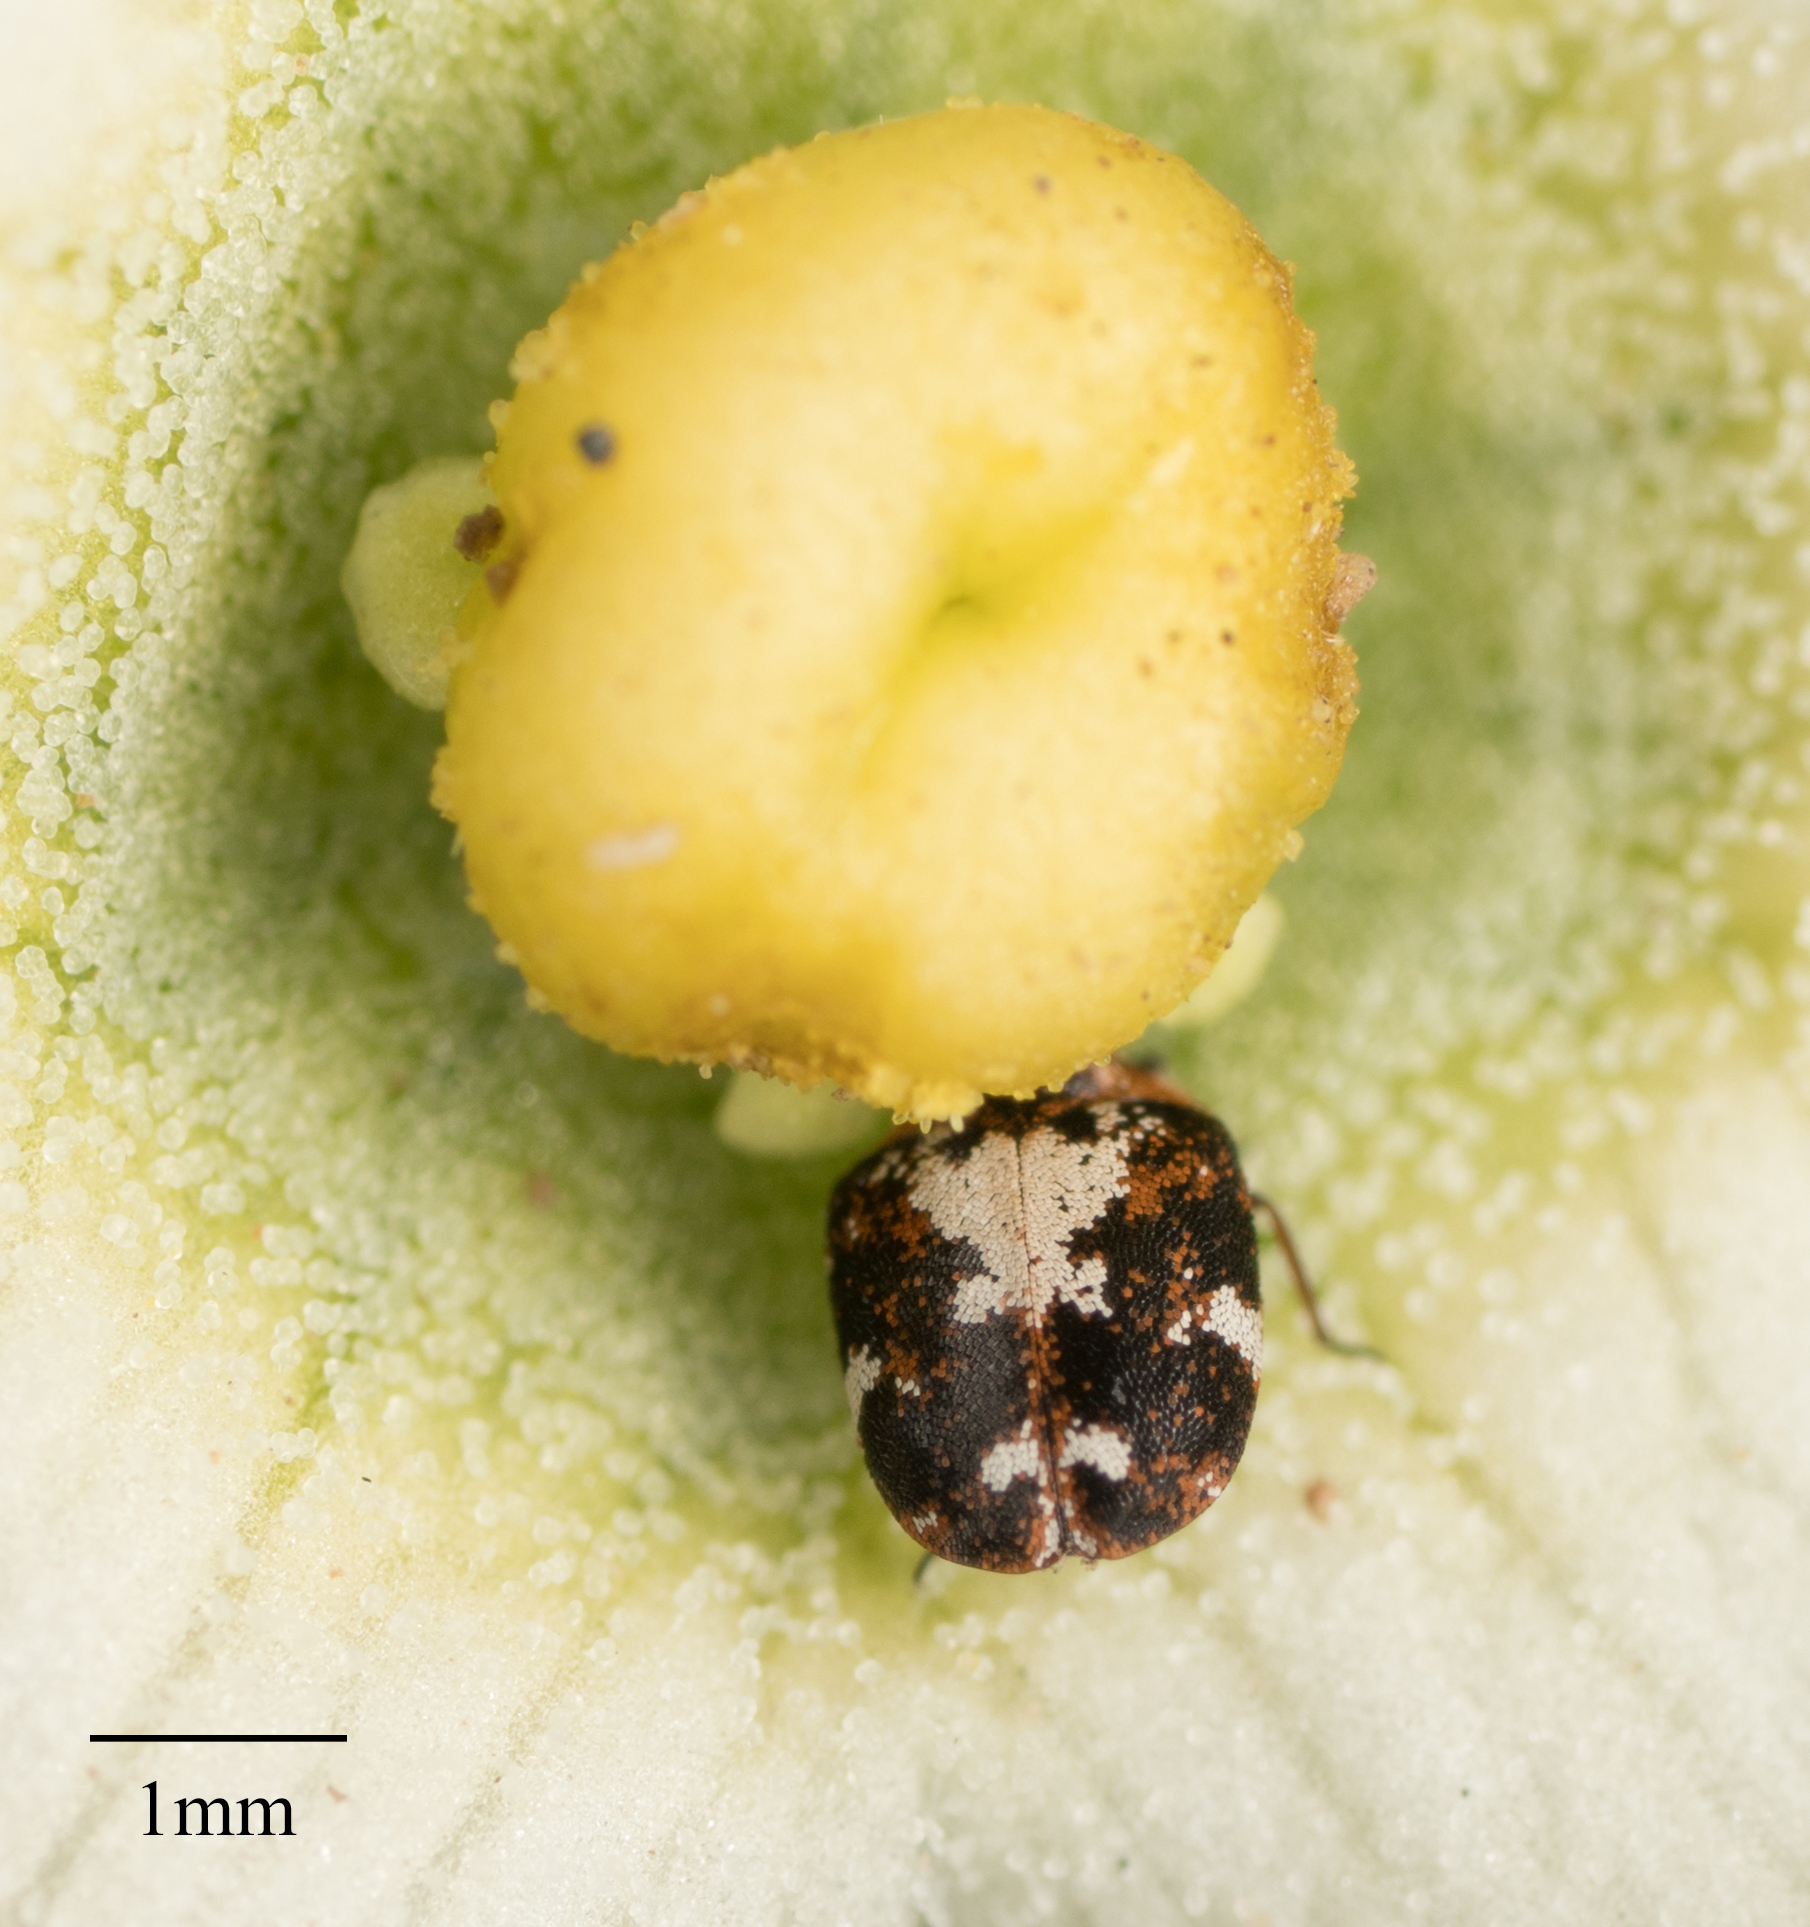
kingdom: Animalia
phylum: Arthropoda
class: Insecta
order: Coleoptera
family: Dermestidae
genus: Anthrenus
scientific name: Anthrenus lepidus
